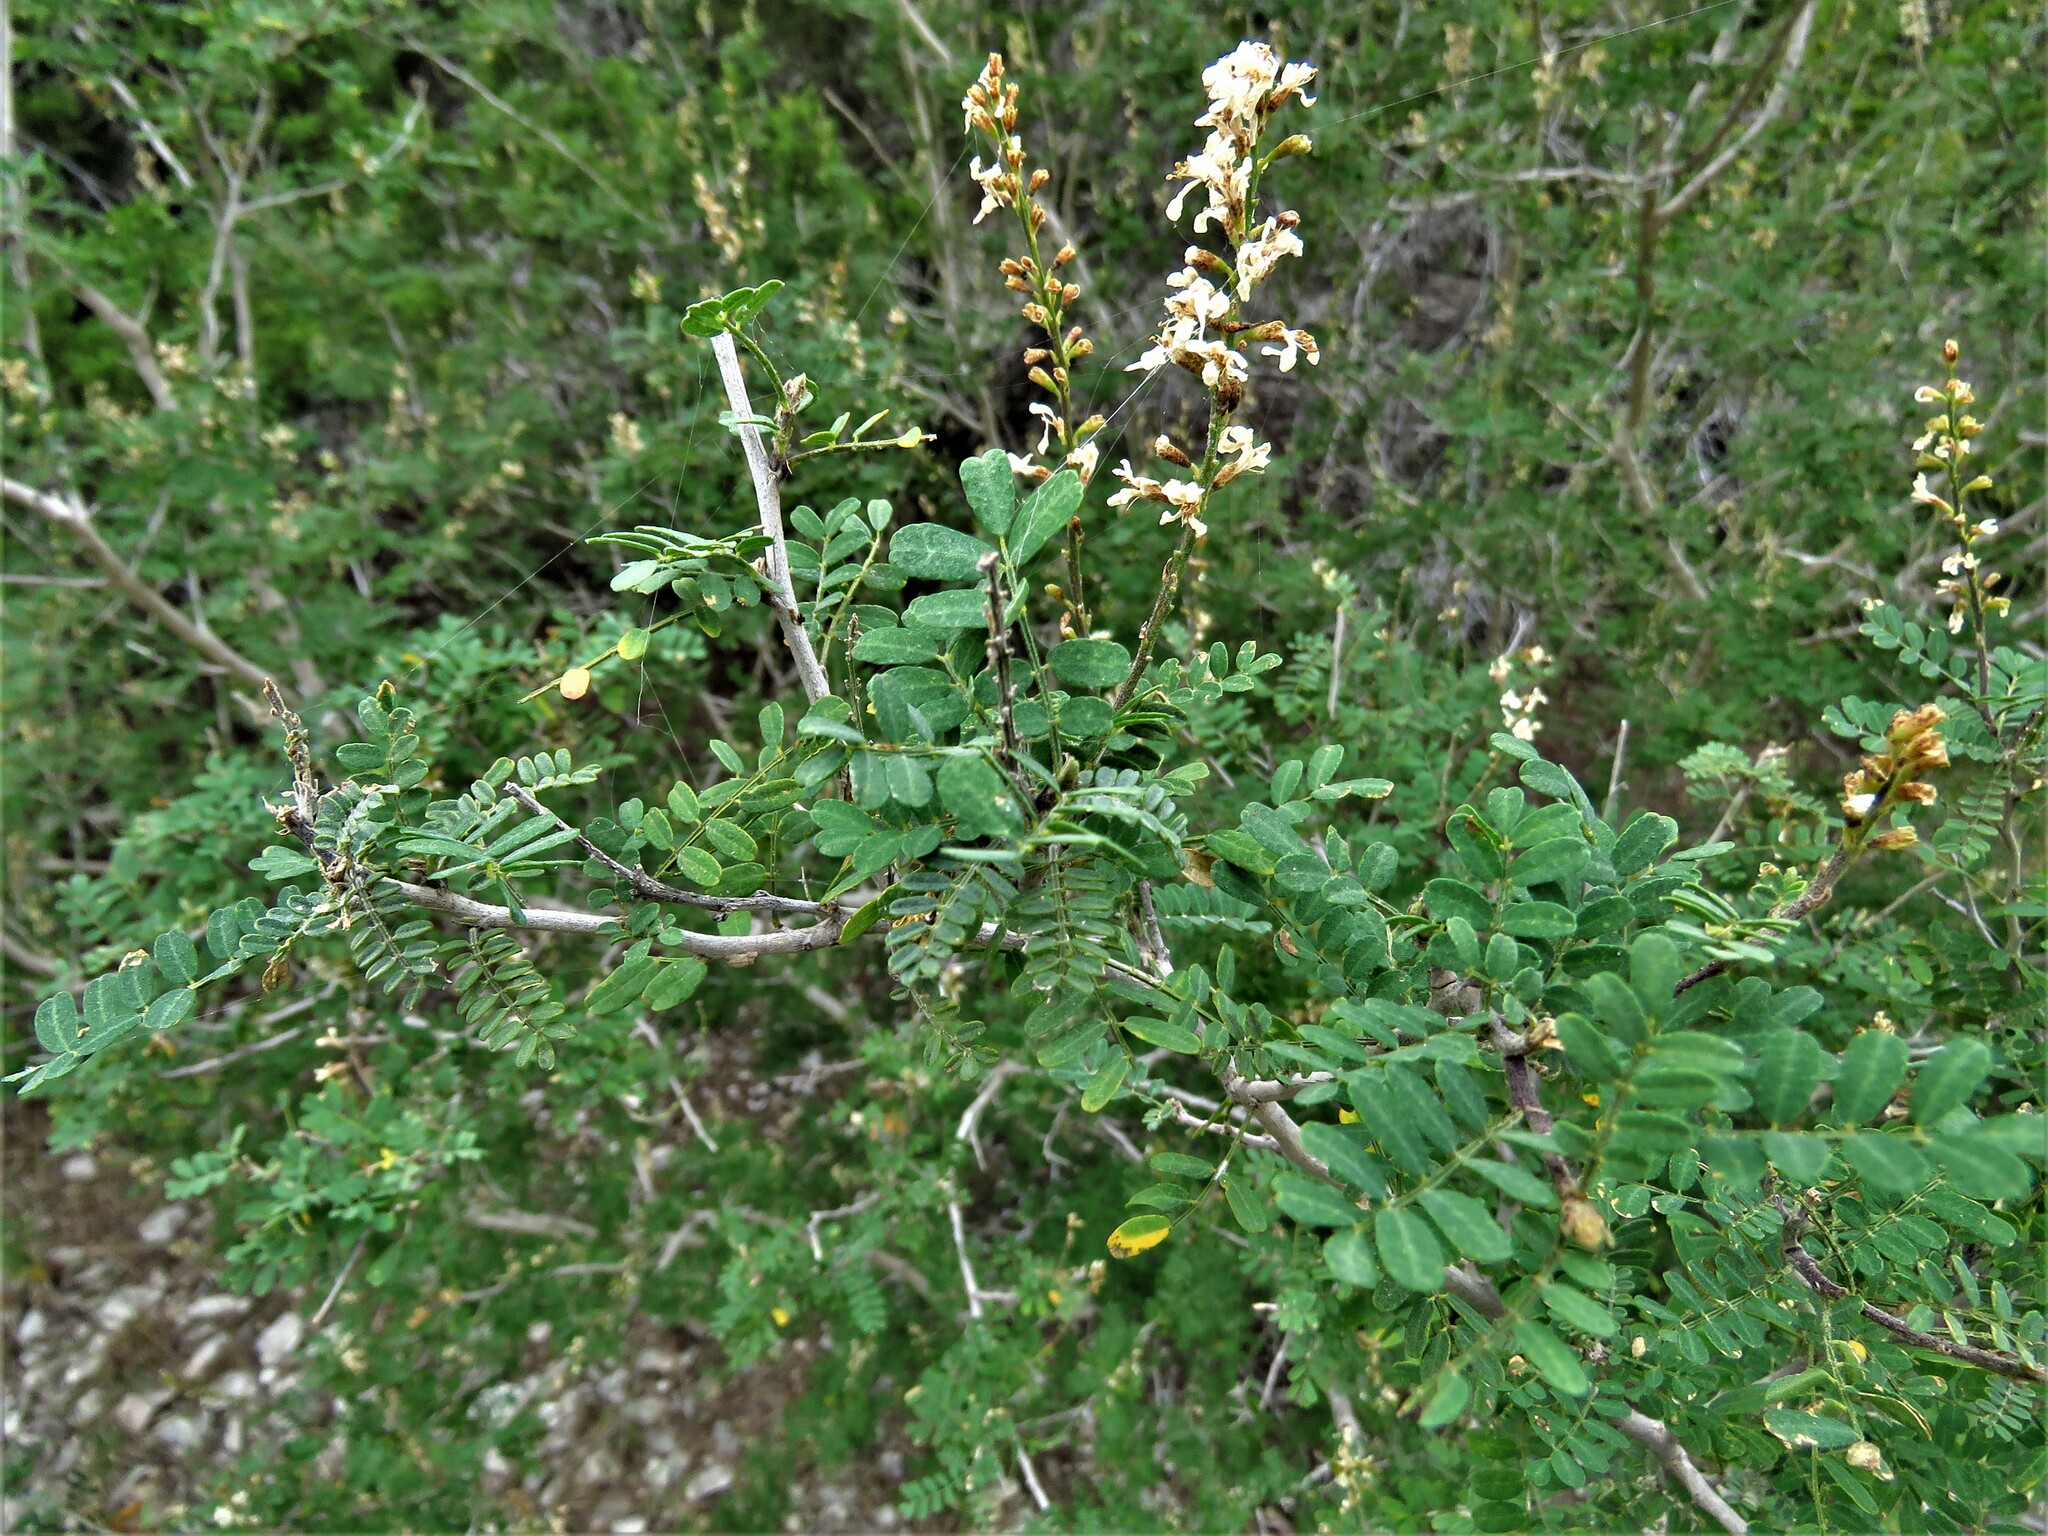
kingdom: Plantae
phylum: Tracheophyta
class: Magnoliopsida
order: Fabales
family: Fabaceae
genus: Eysenhardtia
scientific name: Eysenhardtia texana
